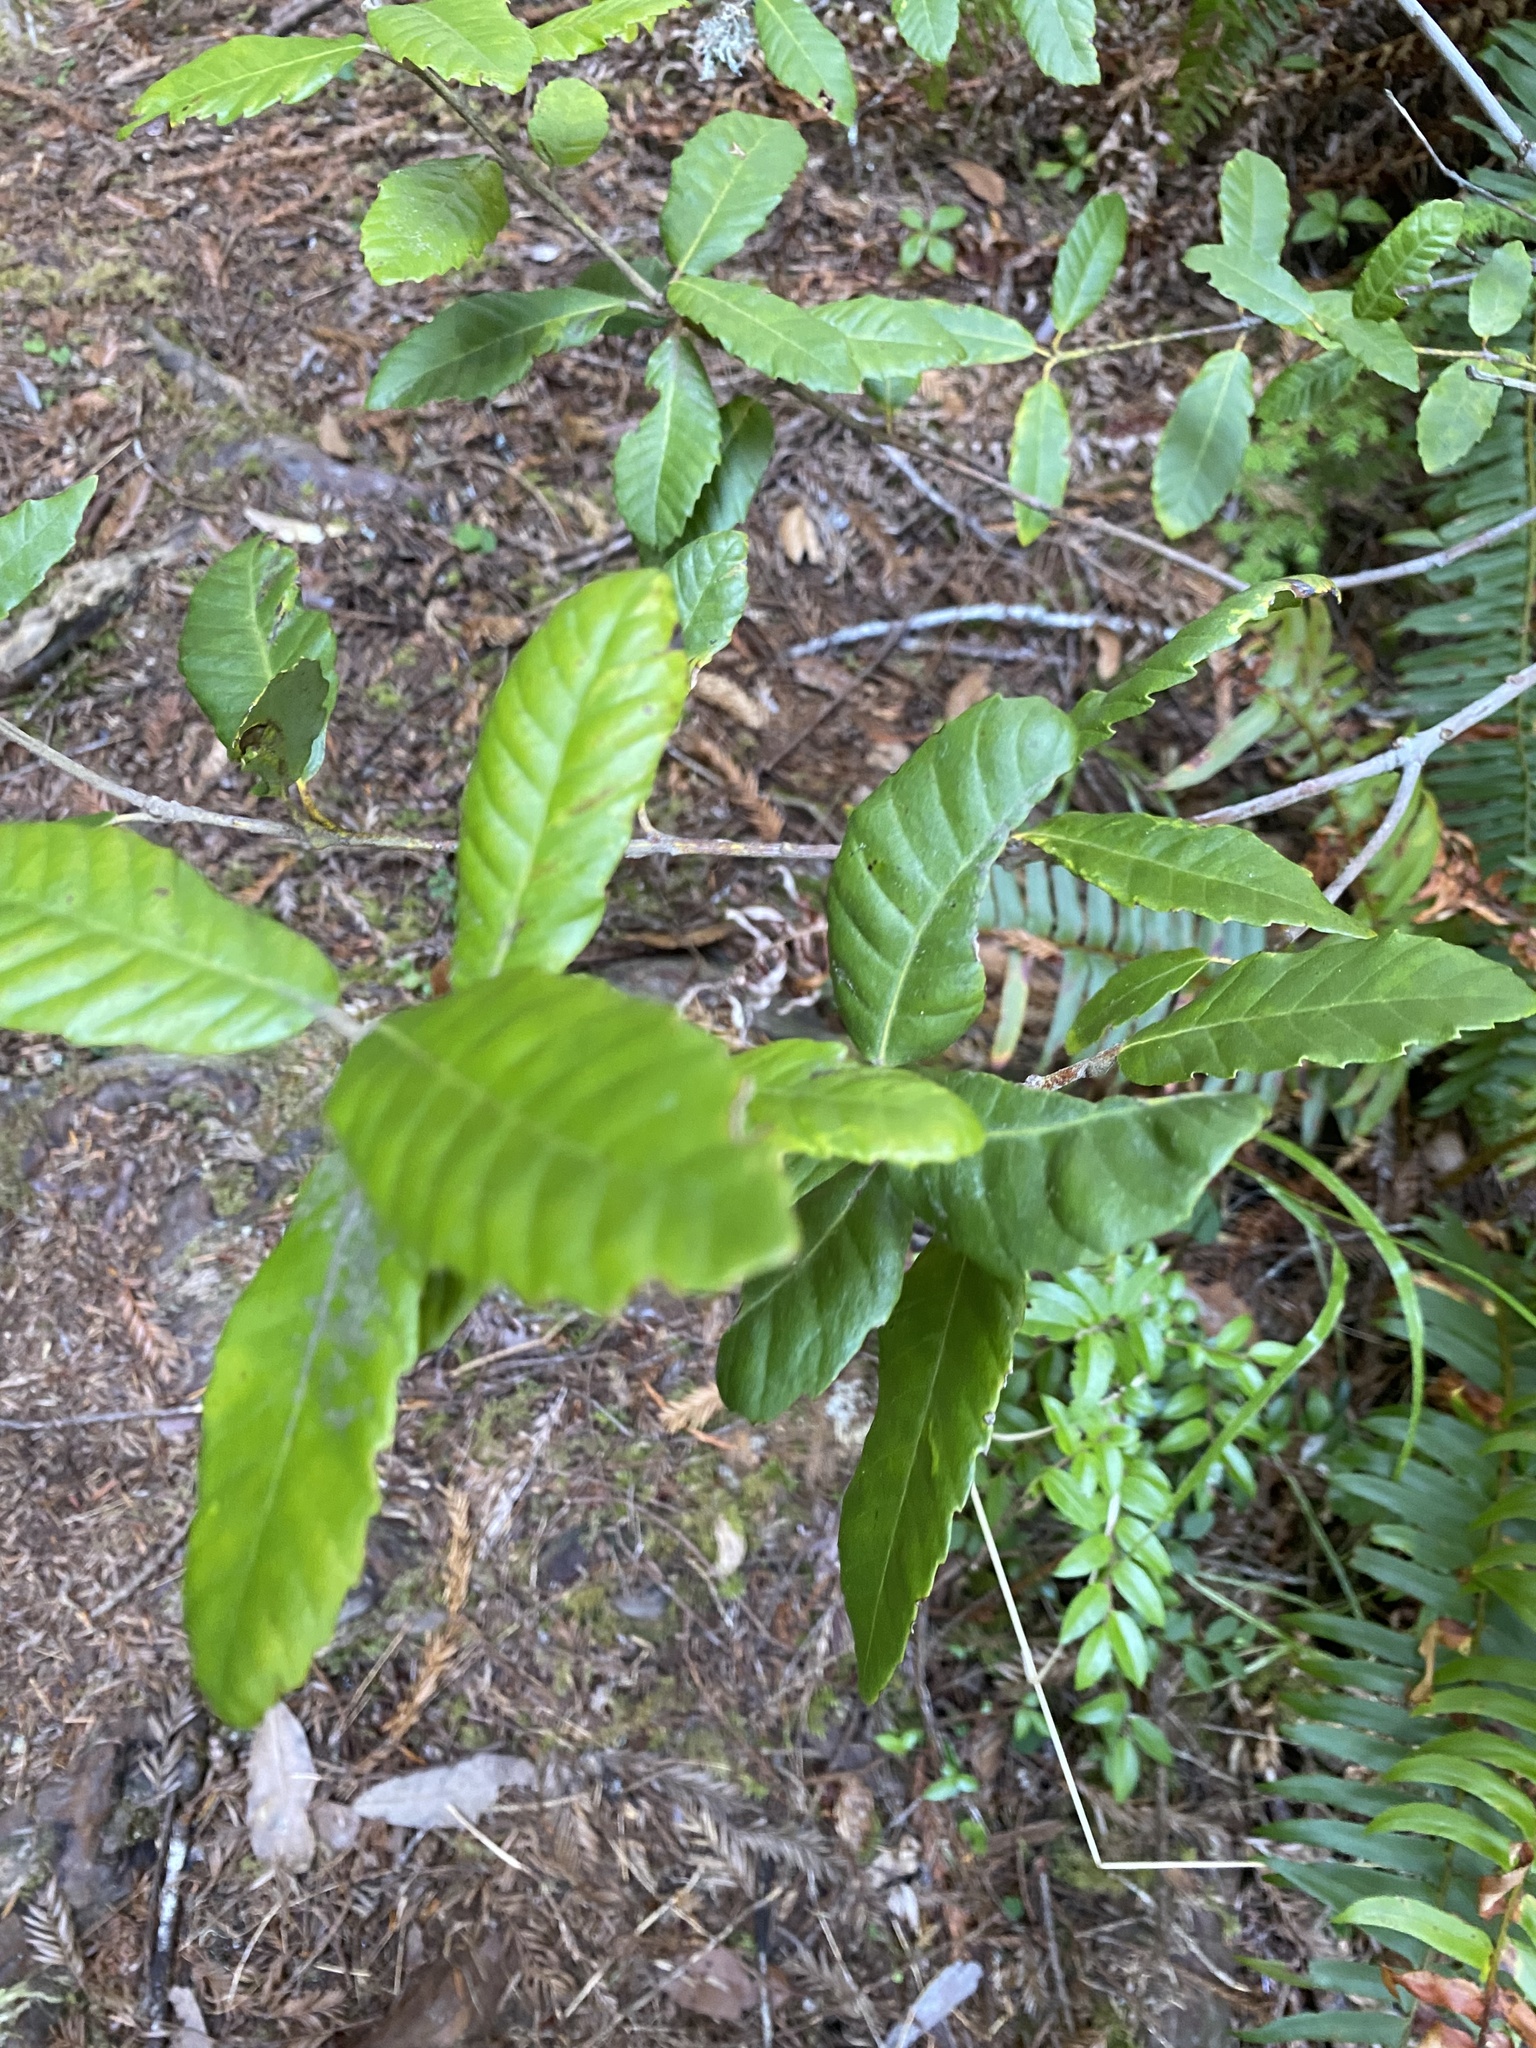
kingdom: Plantae
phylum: Tracheophyta
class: Magnoliopsida
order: Fagales
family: Fagaceae
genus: Notholithocarpus
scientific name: Notholithocarpus densiflorus
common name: Tan bark oak
